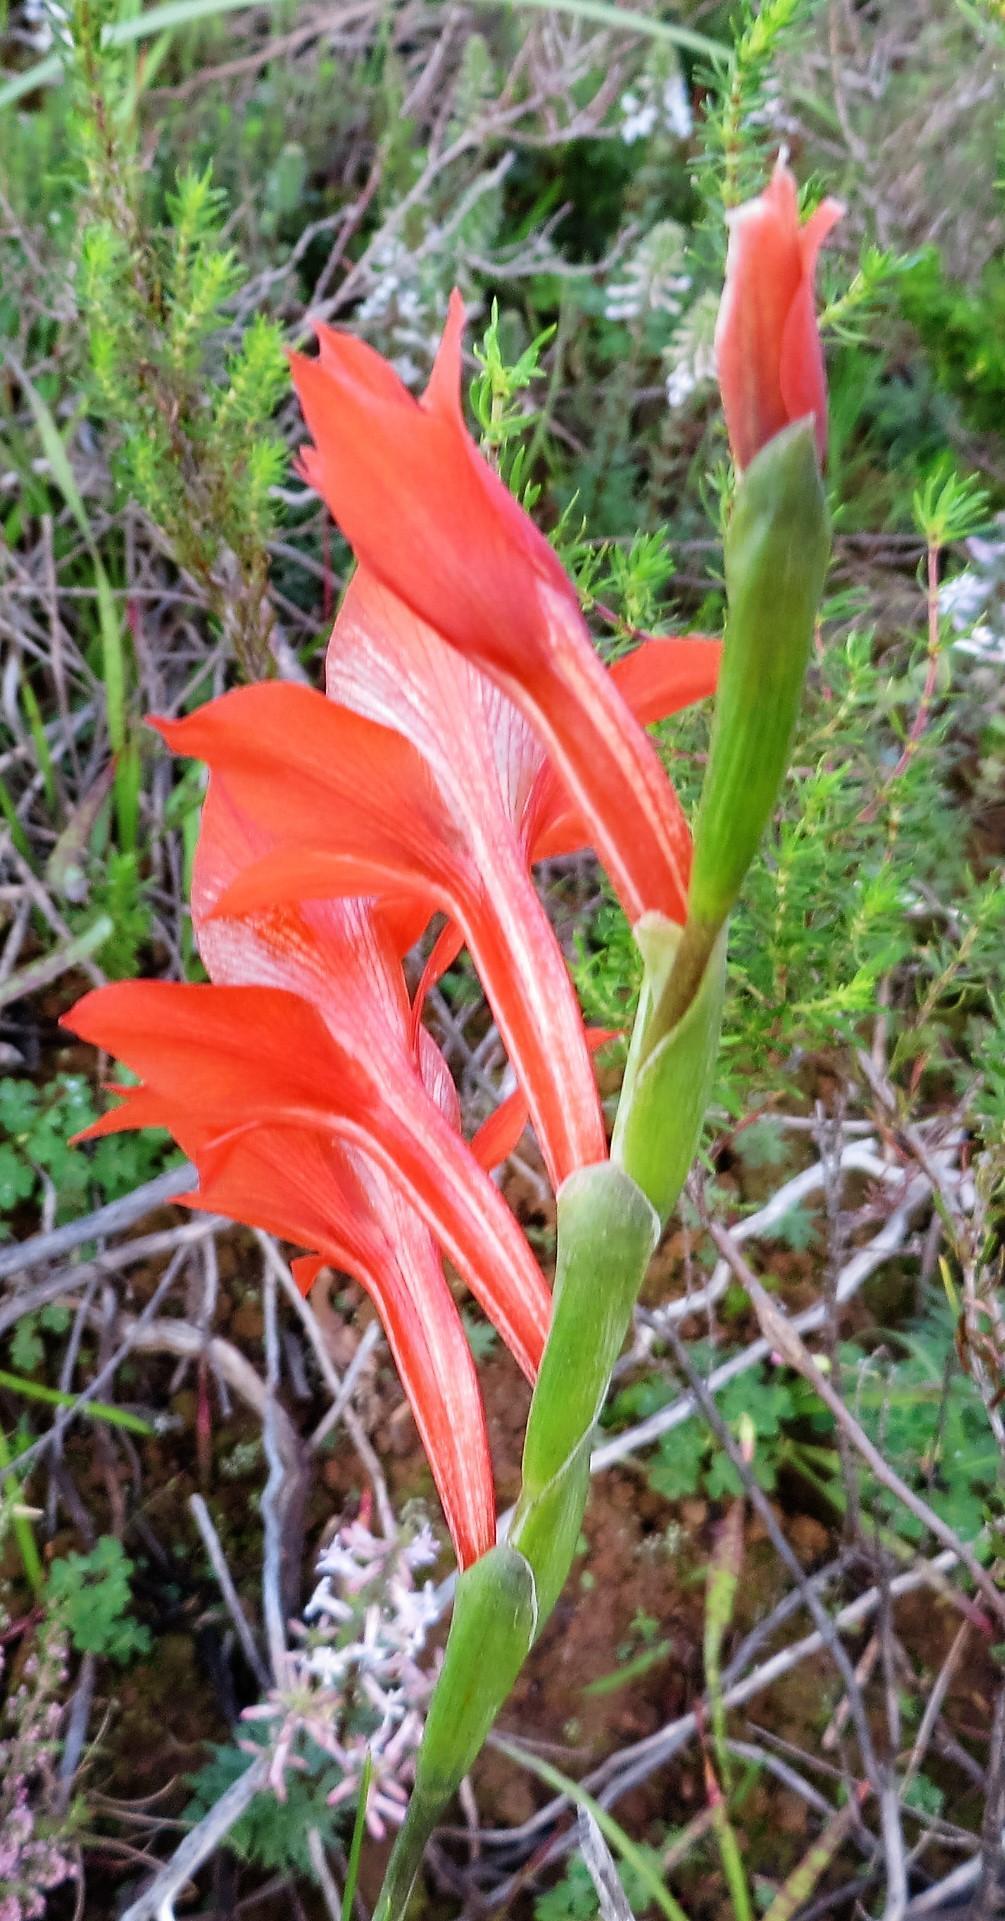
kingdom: Plantae
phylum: Tracheophyta
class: Liliopsida
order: Asparagales
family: Iridaceae
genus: Gladiolus
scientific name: Gladiolus watsonius
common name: Red afrikaner
